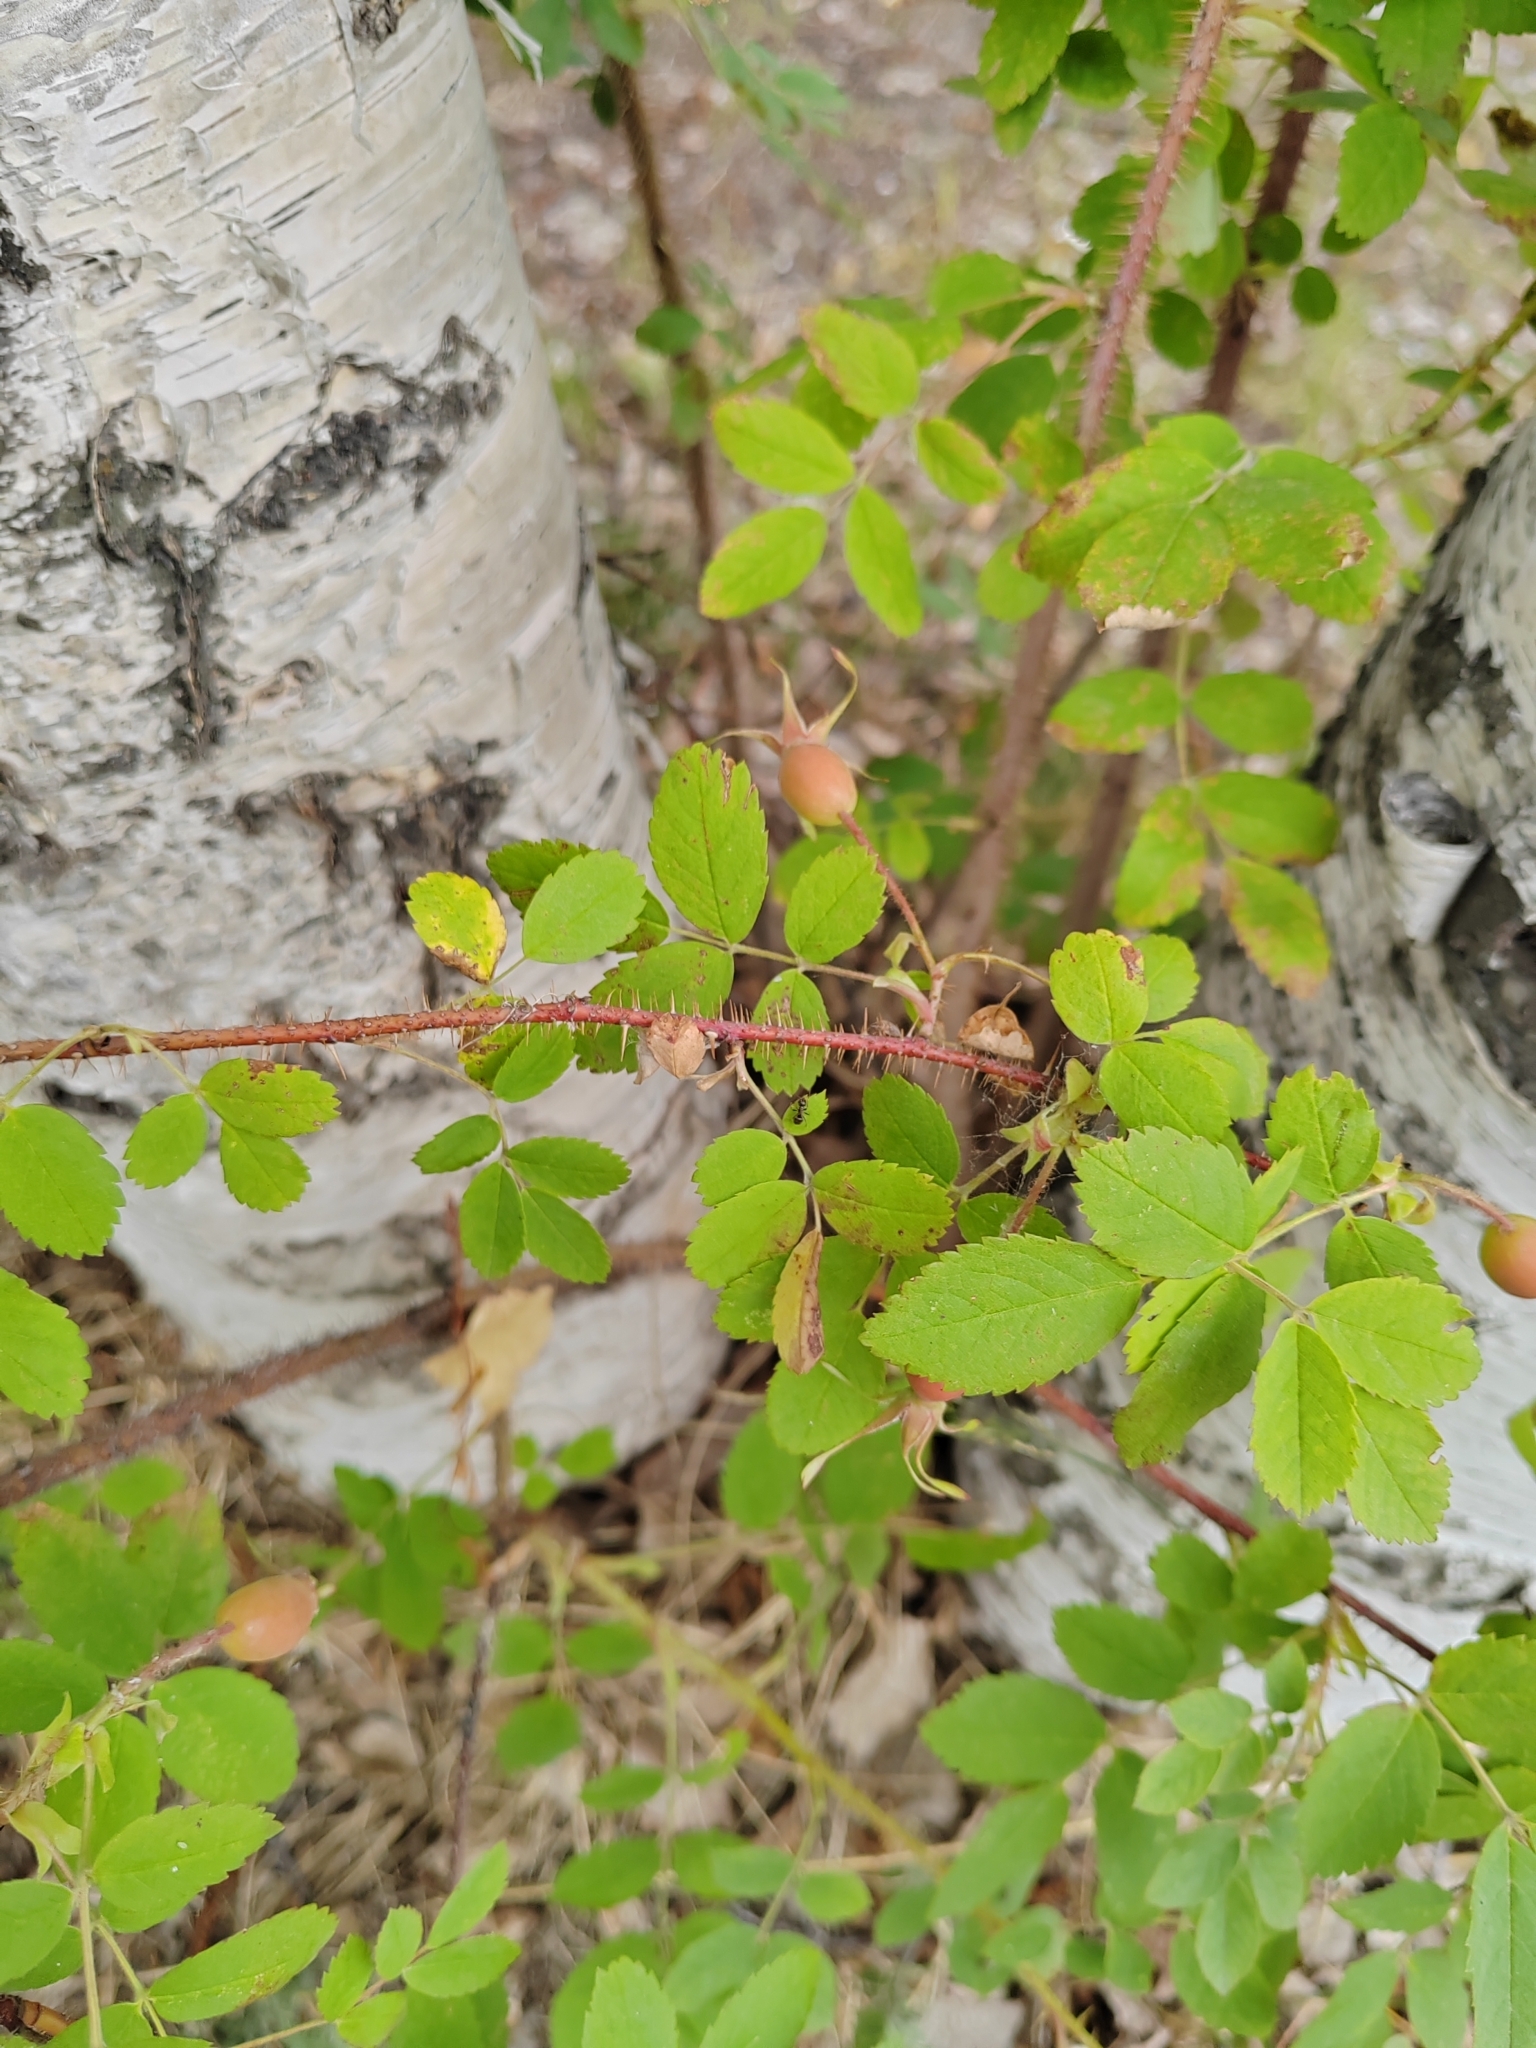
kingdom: Plantae
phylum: Tracheophyta
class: Magnoliopsida
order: Rosales
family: Rosaceae
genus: Rosa
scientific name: Rosa acicularis
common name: Prickly rose
